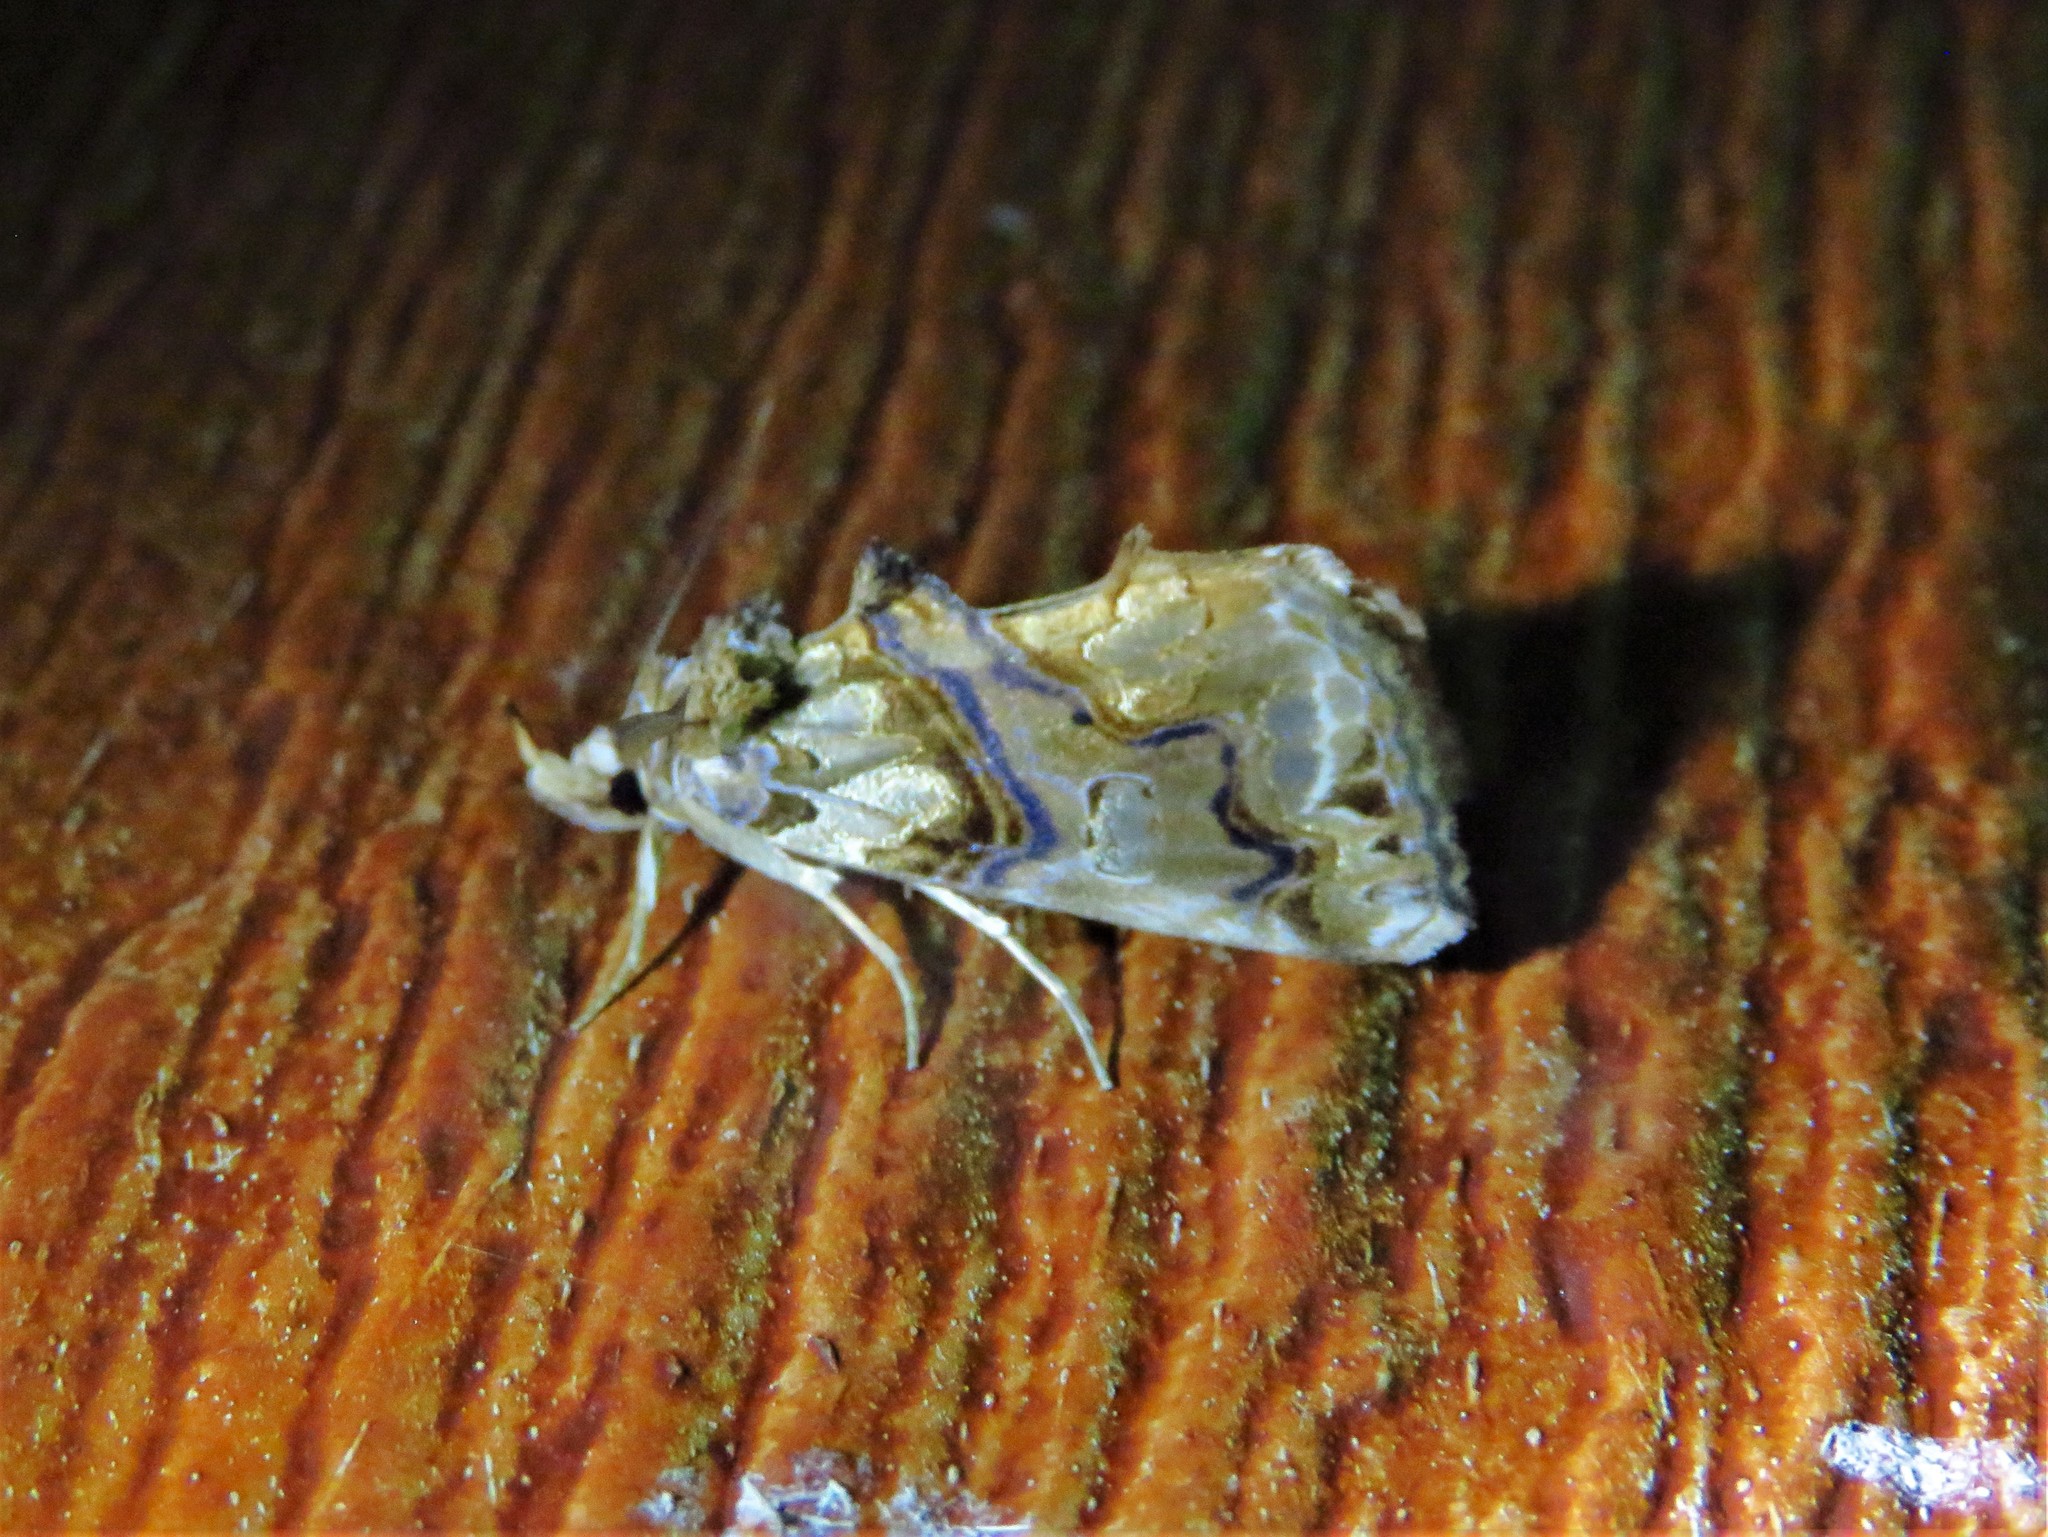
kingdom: Animalia
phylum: Arthropoda
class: Insecta
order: Lepidoptera
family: Erebidae
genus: Plusiodonta
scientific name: Plusiodonta compressipalpis
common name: Moonseed moth
